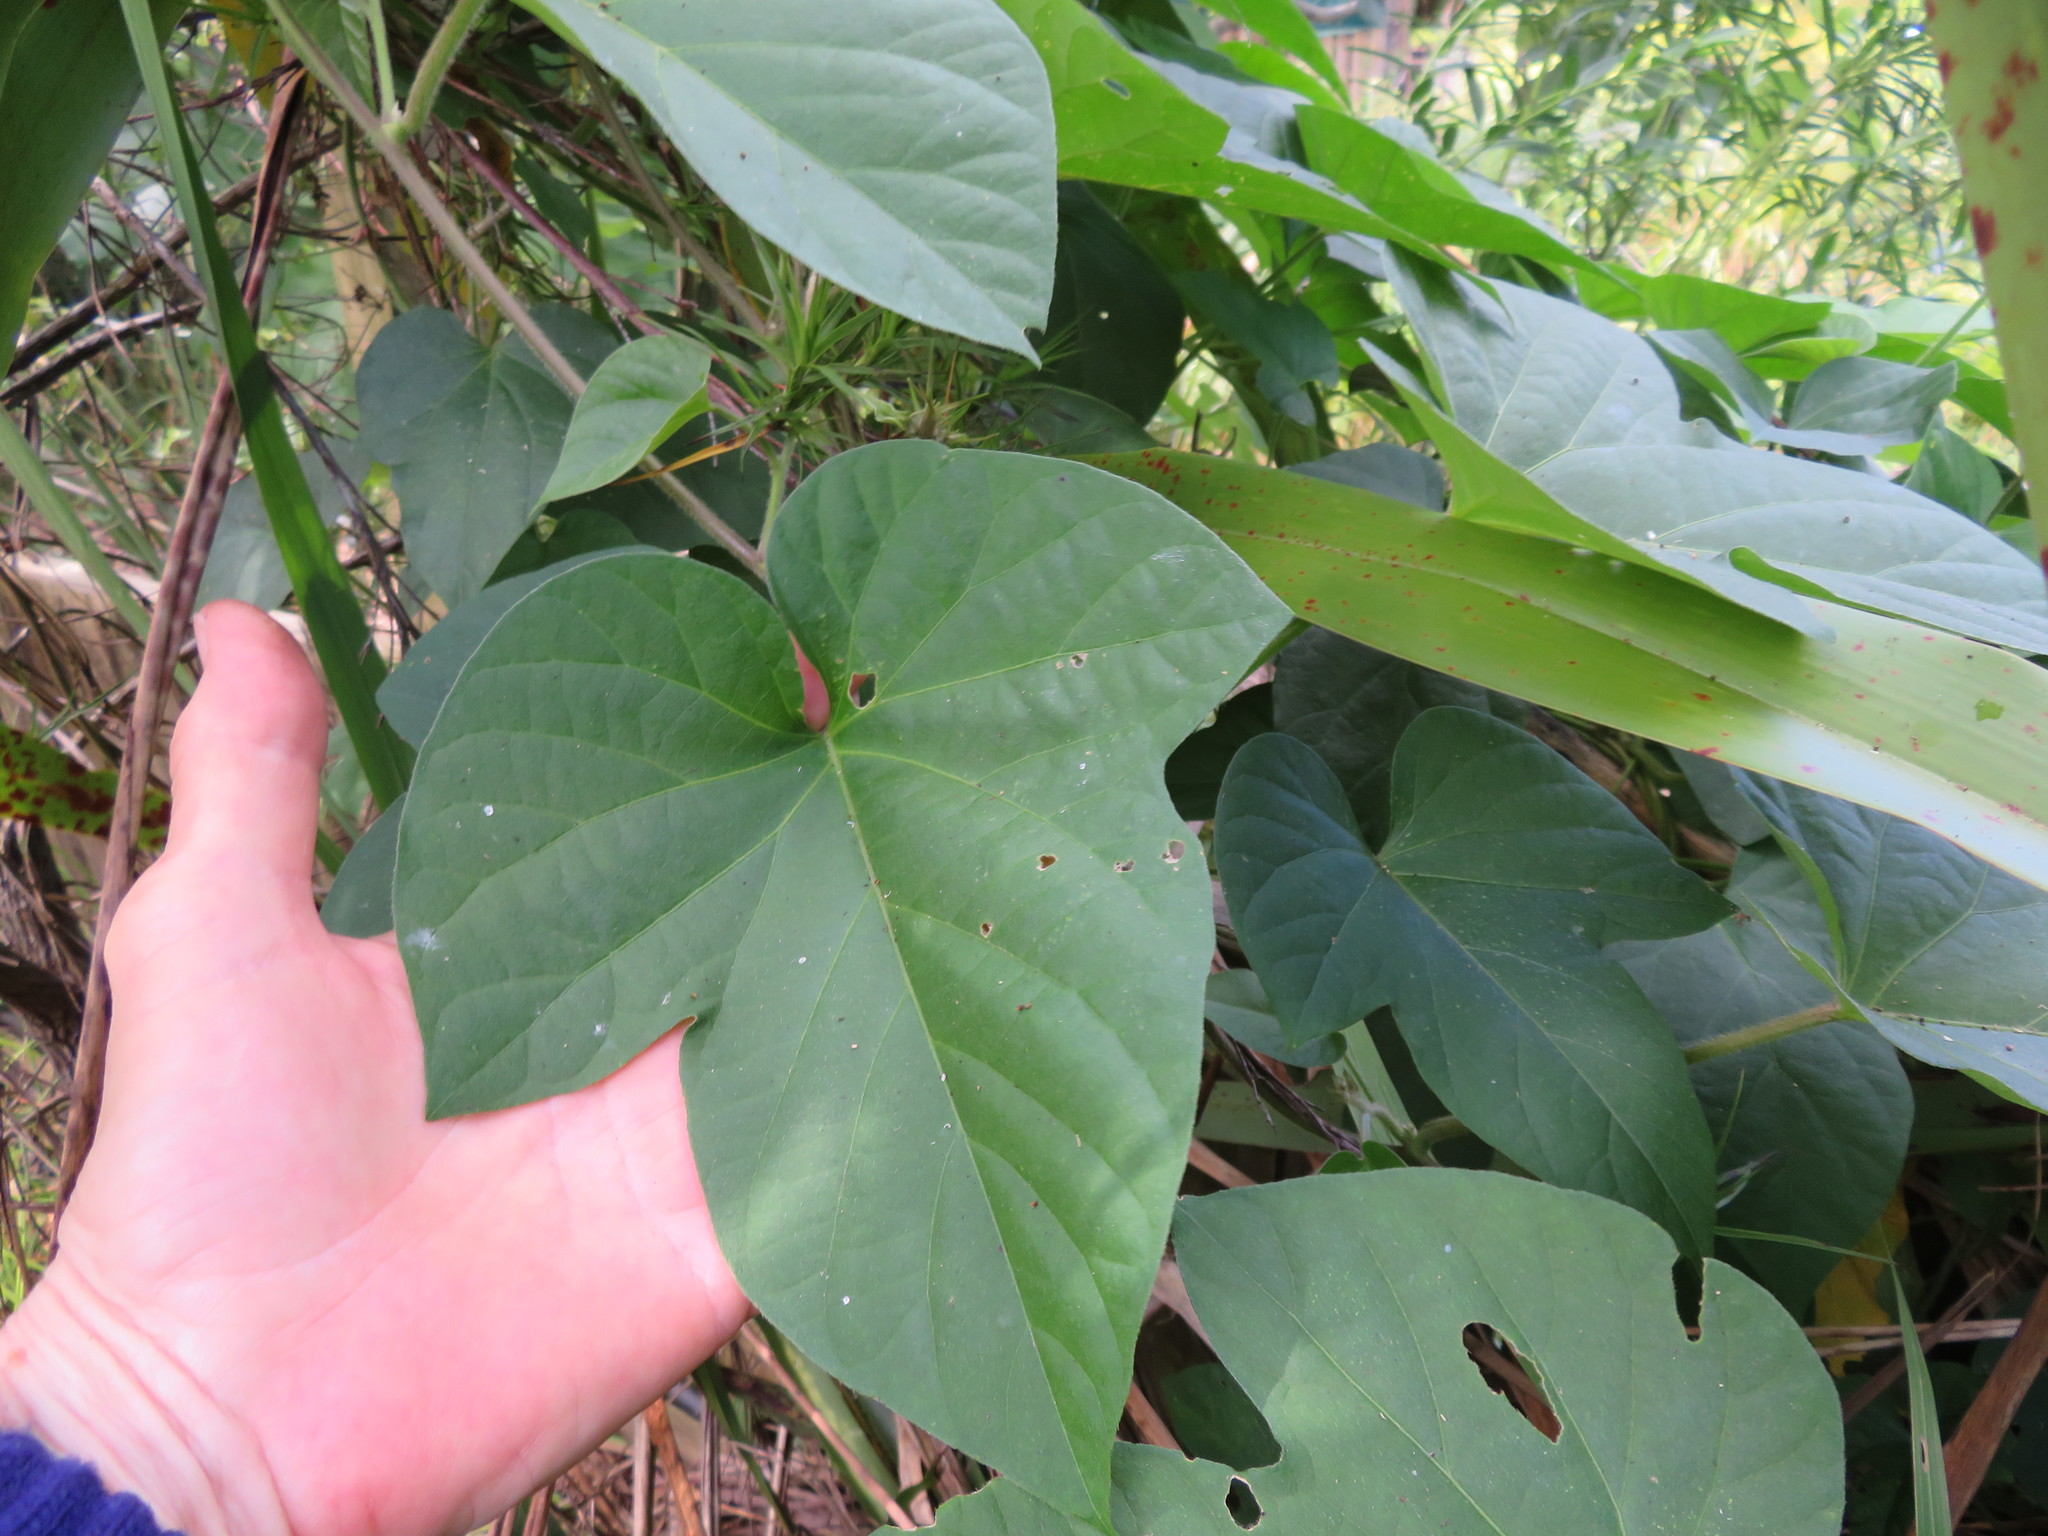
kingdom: Plantae
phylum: Tracheophyta
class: Magnoliopsida
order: Solanales
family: Convolvulaceae
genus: Ipomoea
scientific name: Ipomoea indica
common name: Blue dawnflower
